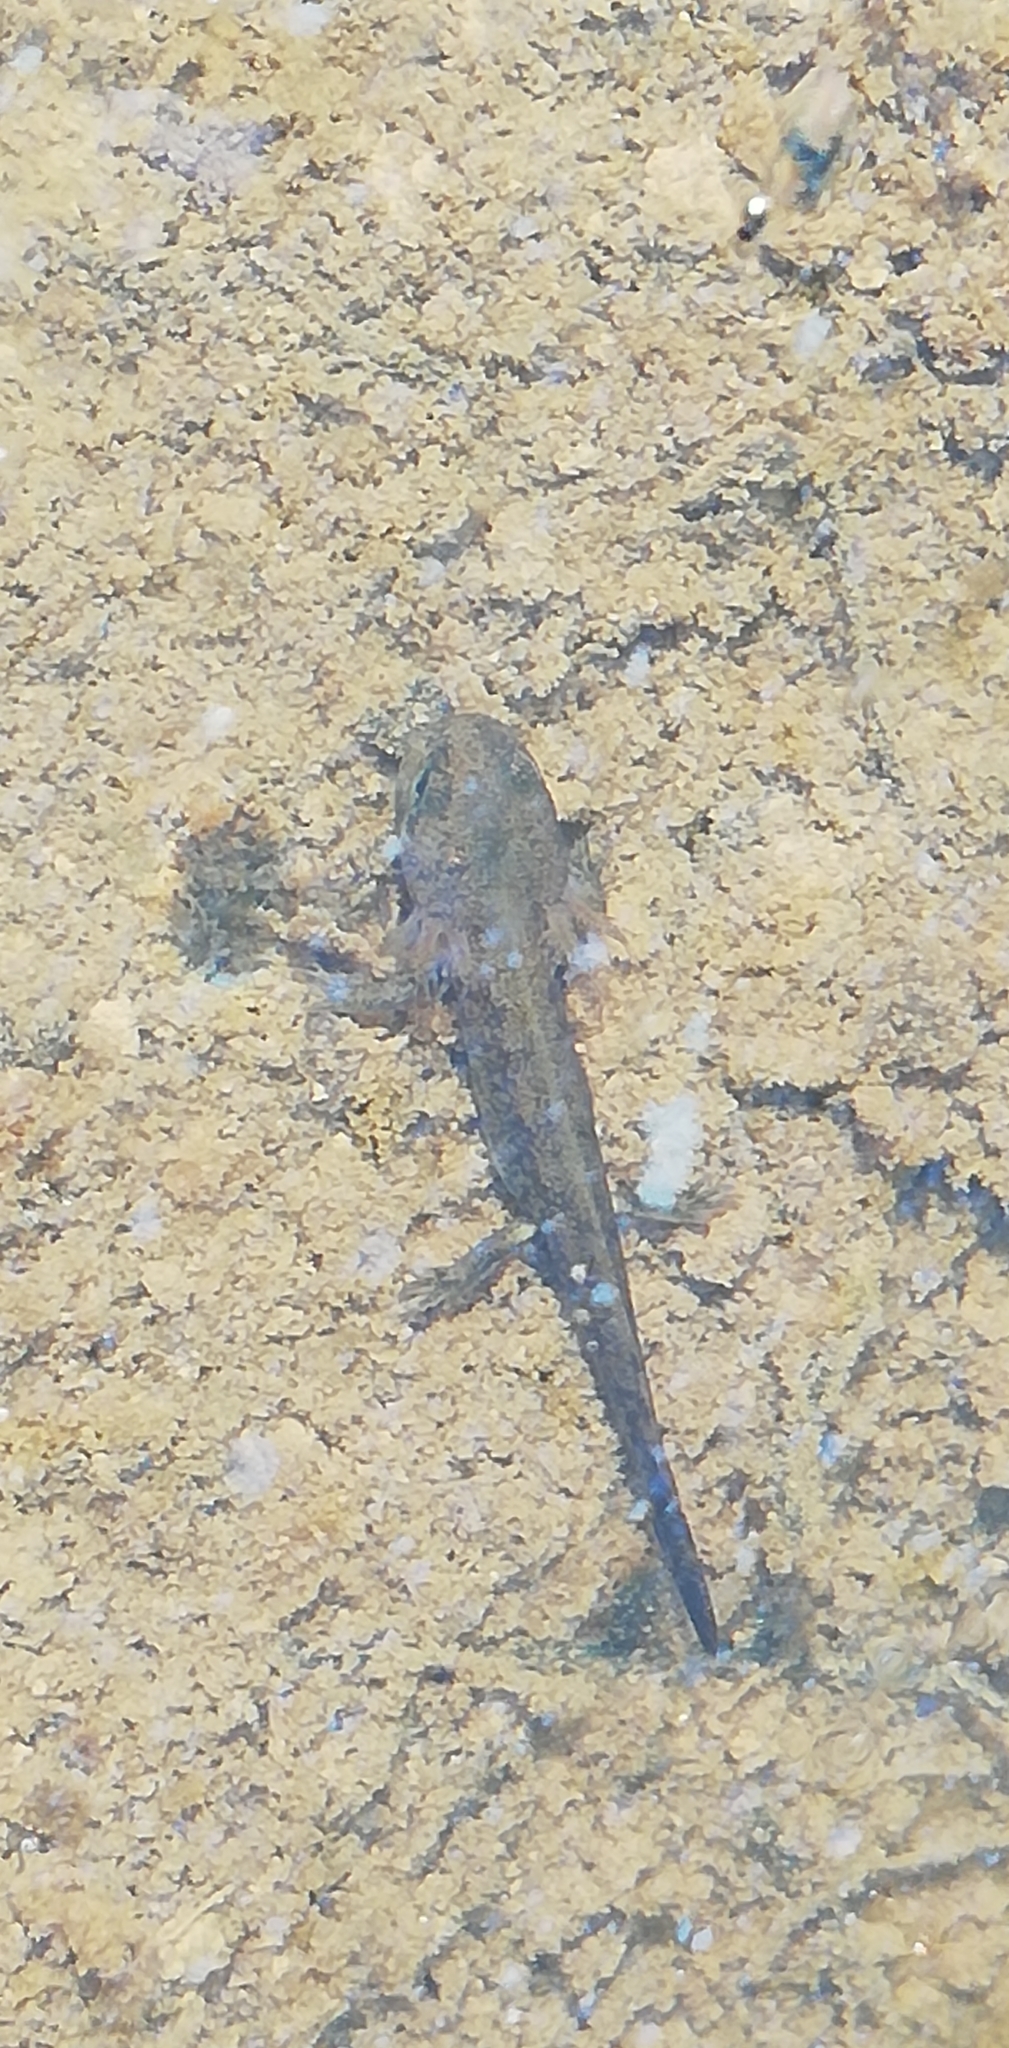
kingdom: Animalia
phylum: Chordata
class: Amphibia
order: Caudata
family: Salamandridae
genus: Salamandra
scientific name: Salamandra salamandra
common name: Fire salamander
